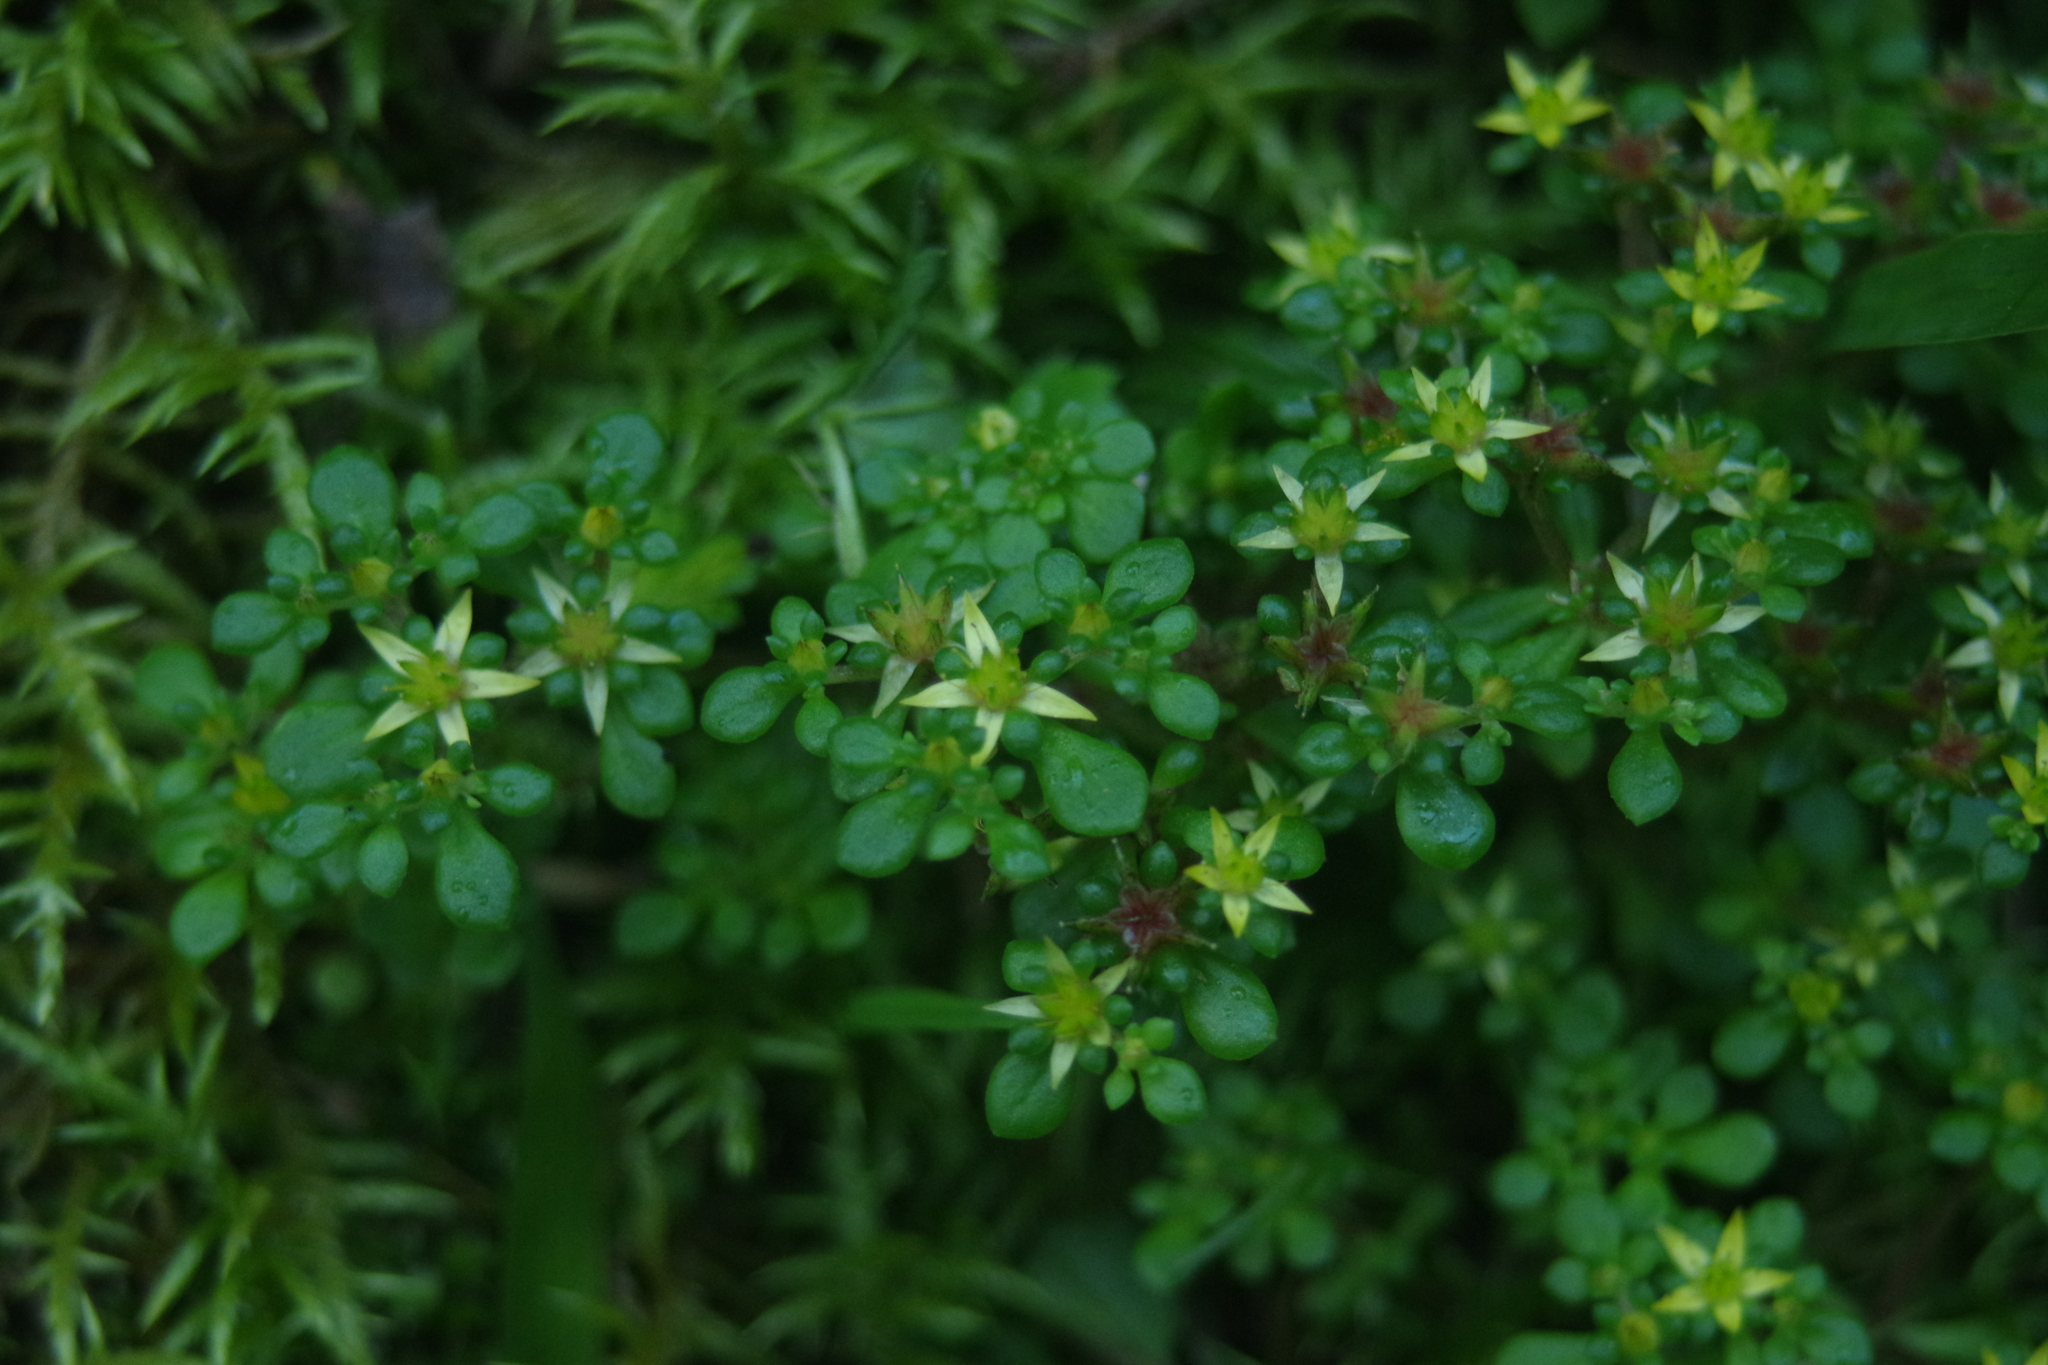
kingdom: Plantae
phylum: Tracheophyta
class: Magnoliopsida
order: Saxifragales
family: Crassulaceae
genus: Sedum
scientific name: Sedum actinocarpum
